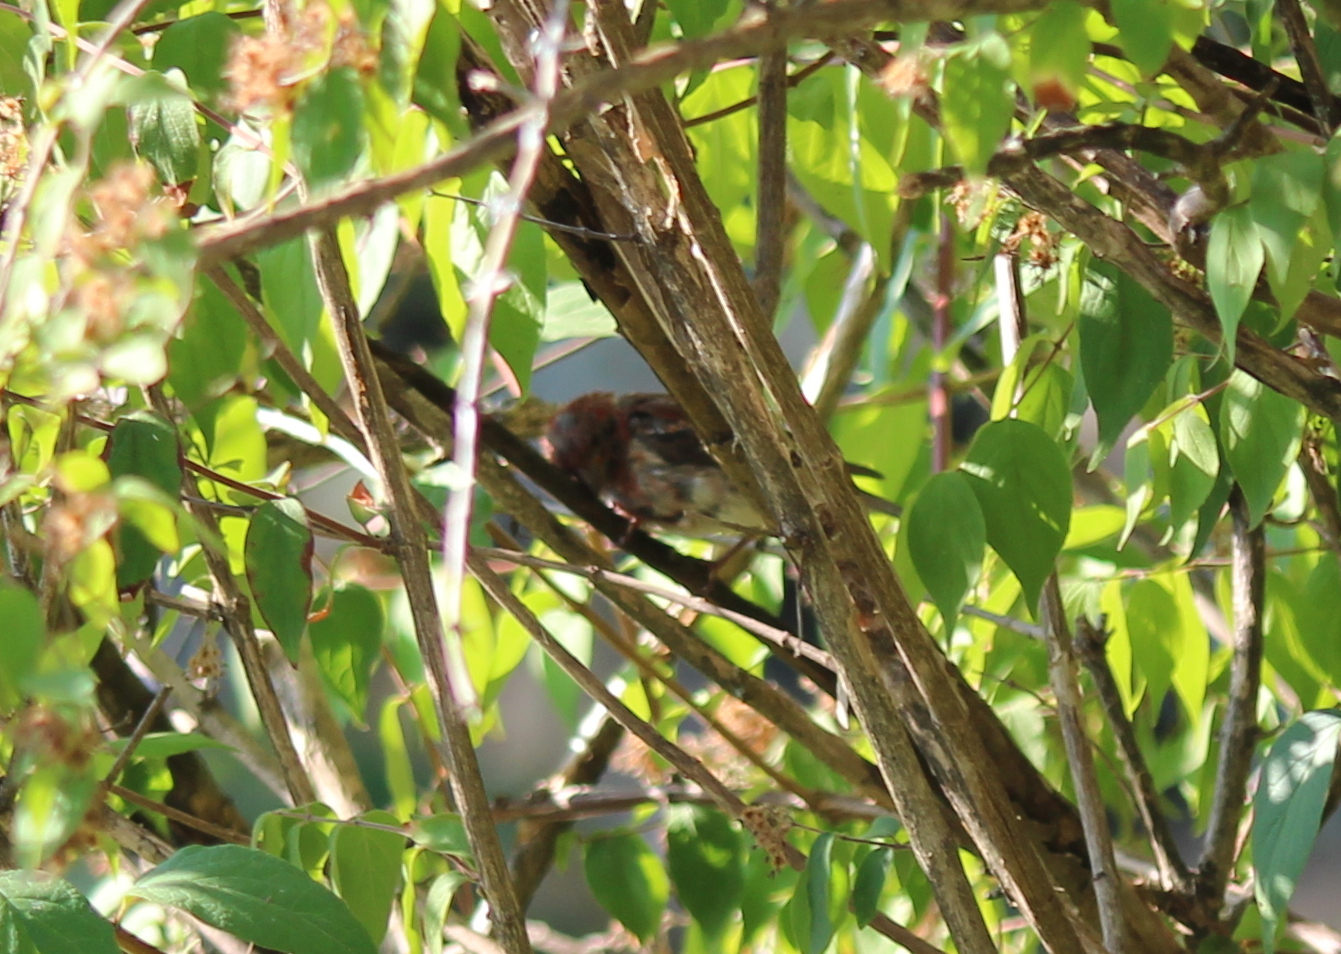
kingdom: Animalia
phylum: Chordata
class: Aves
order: Passeriformes
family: Fringillidae
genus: Haemorhous
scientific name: Haemorhous mexicanus
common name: House finch
